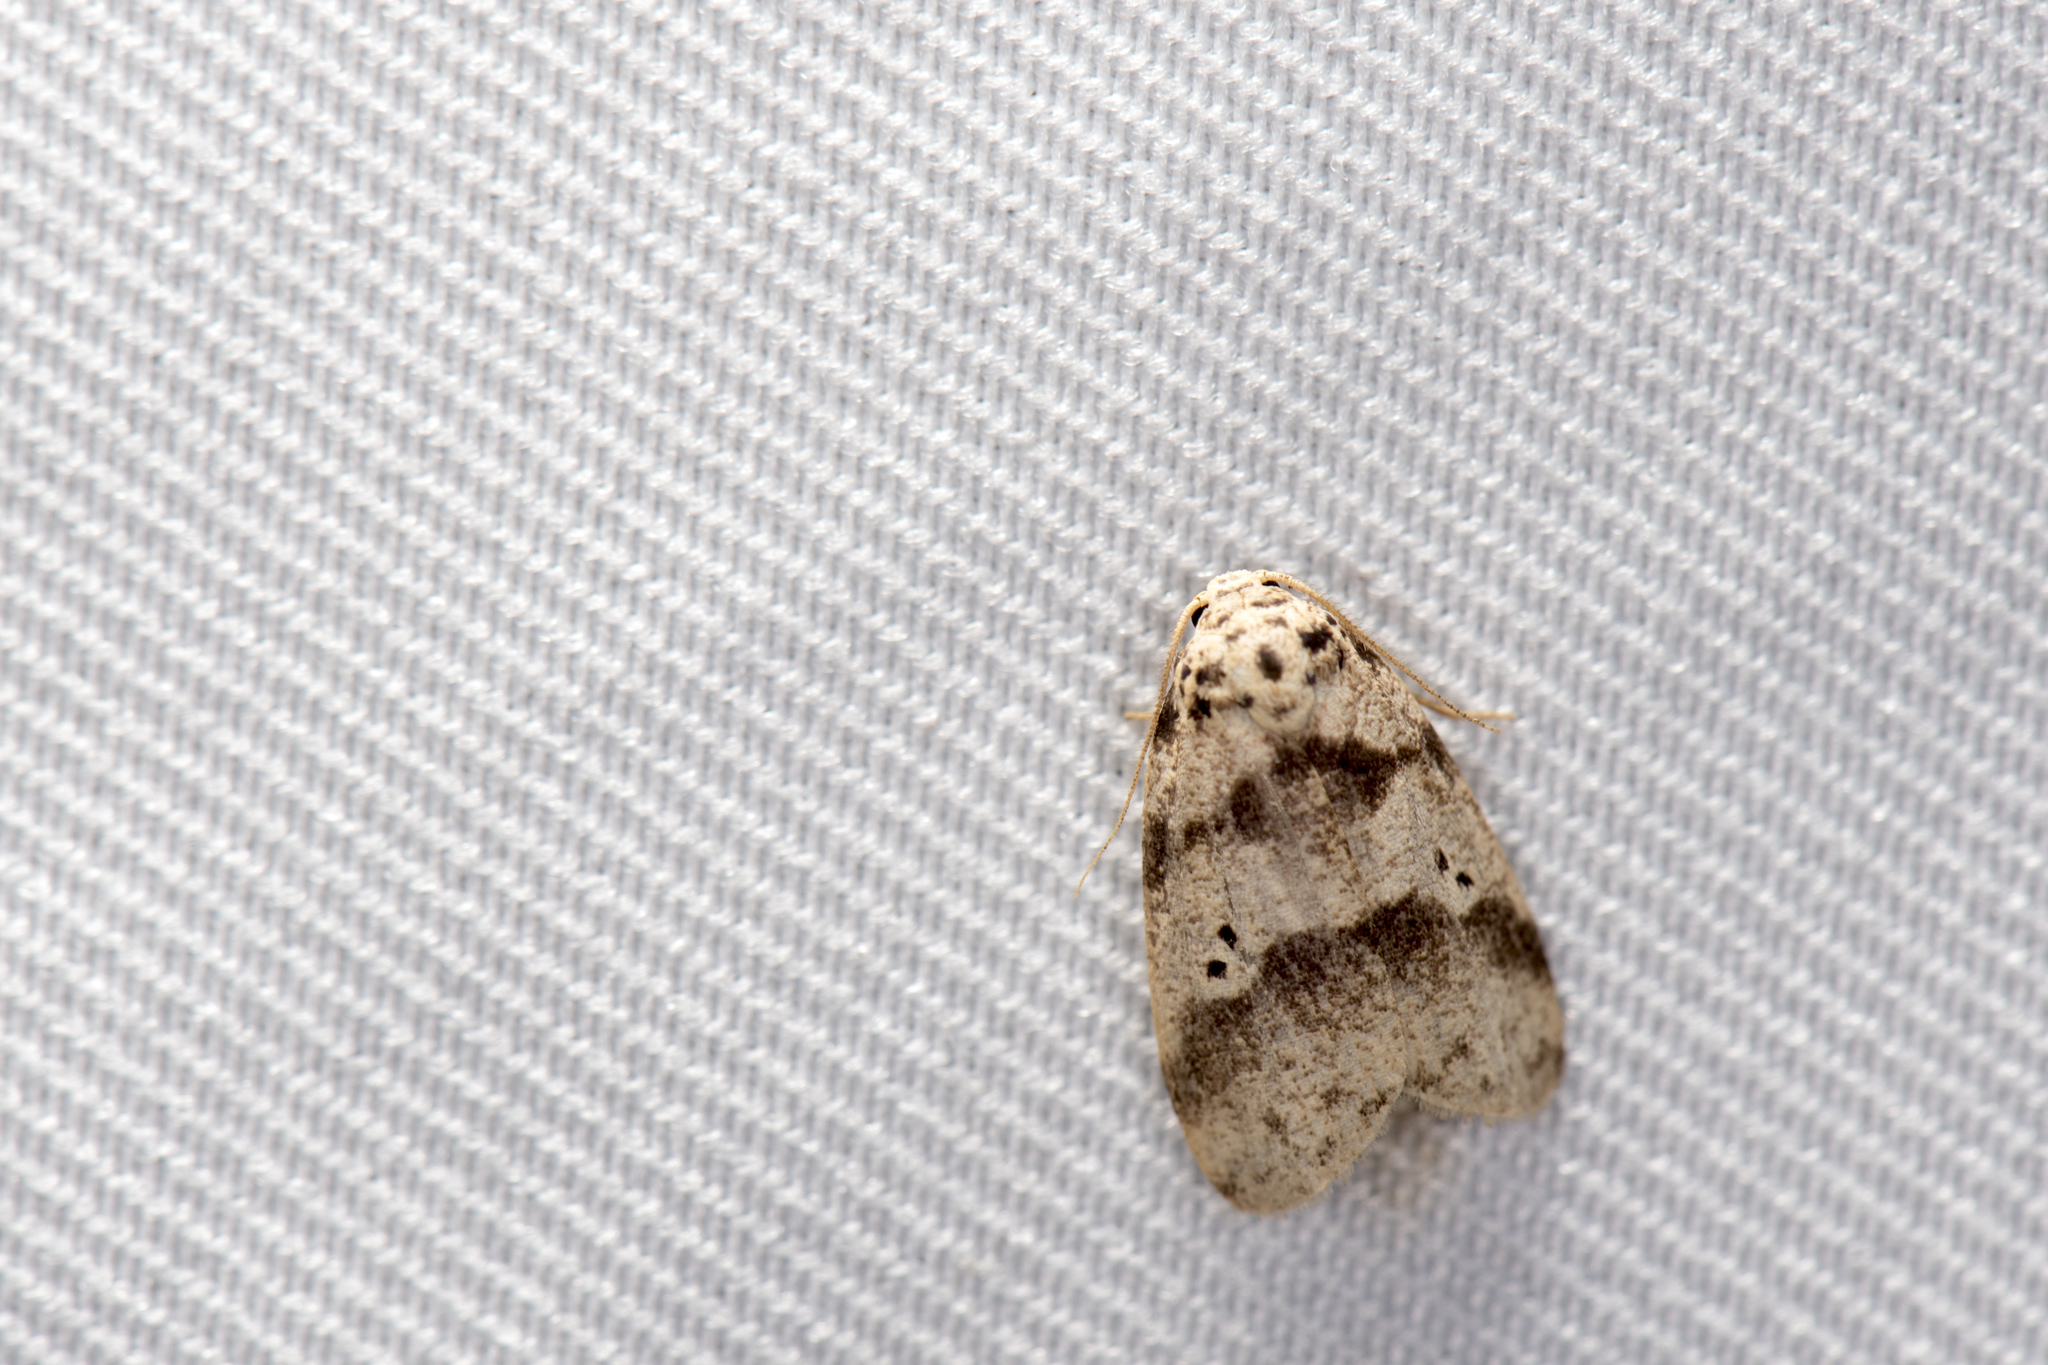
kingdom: Animalia
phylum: Arthropoda
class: Insecta
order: Lepidoptera
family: Erebidae
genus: Eugoa
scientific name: Eugoa formosicola
